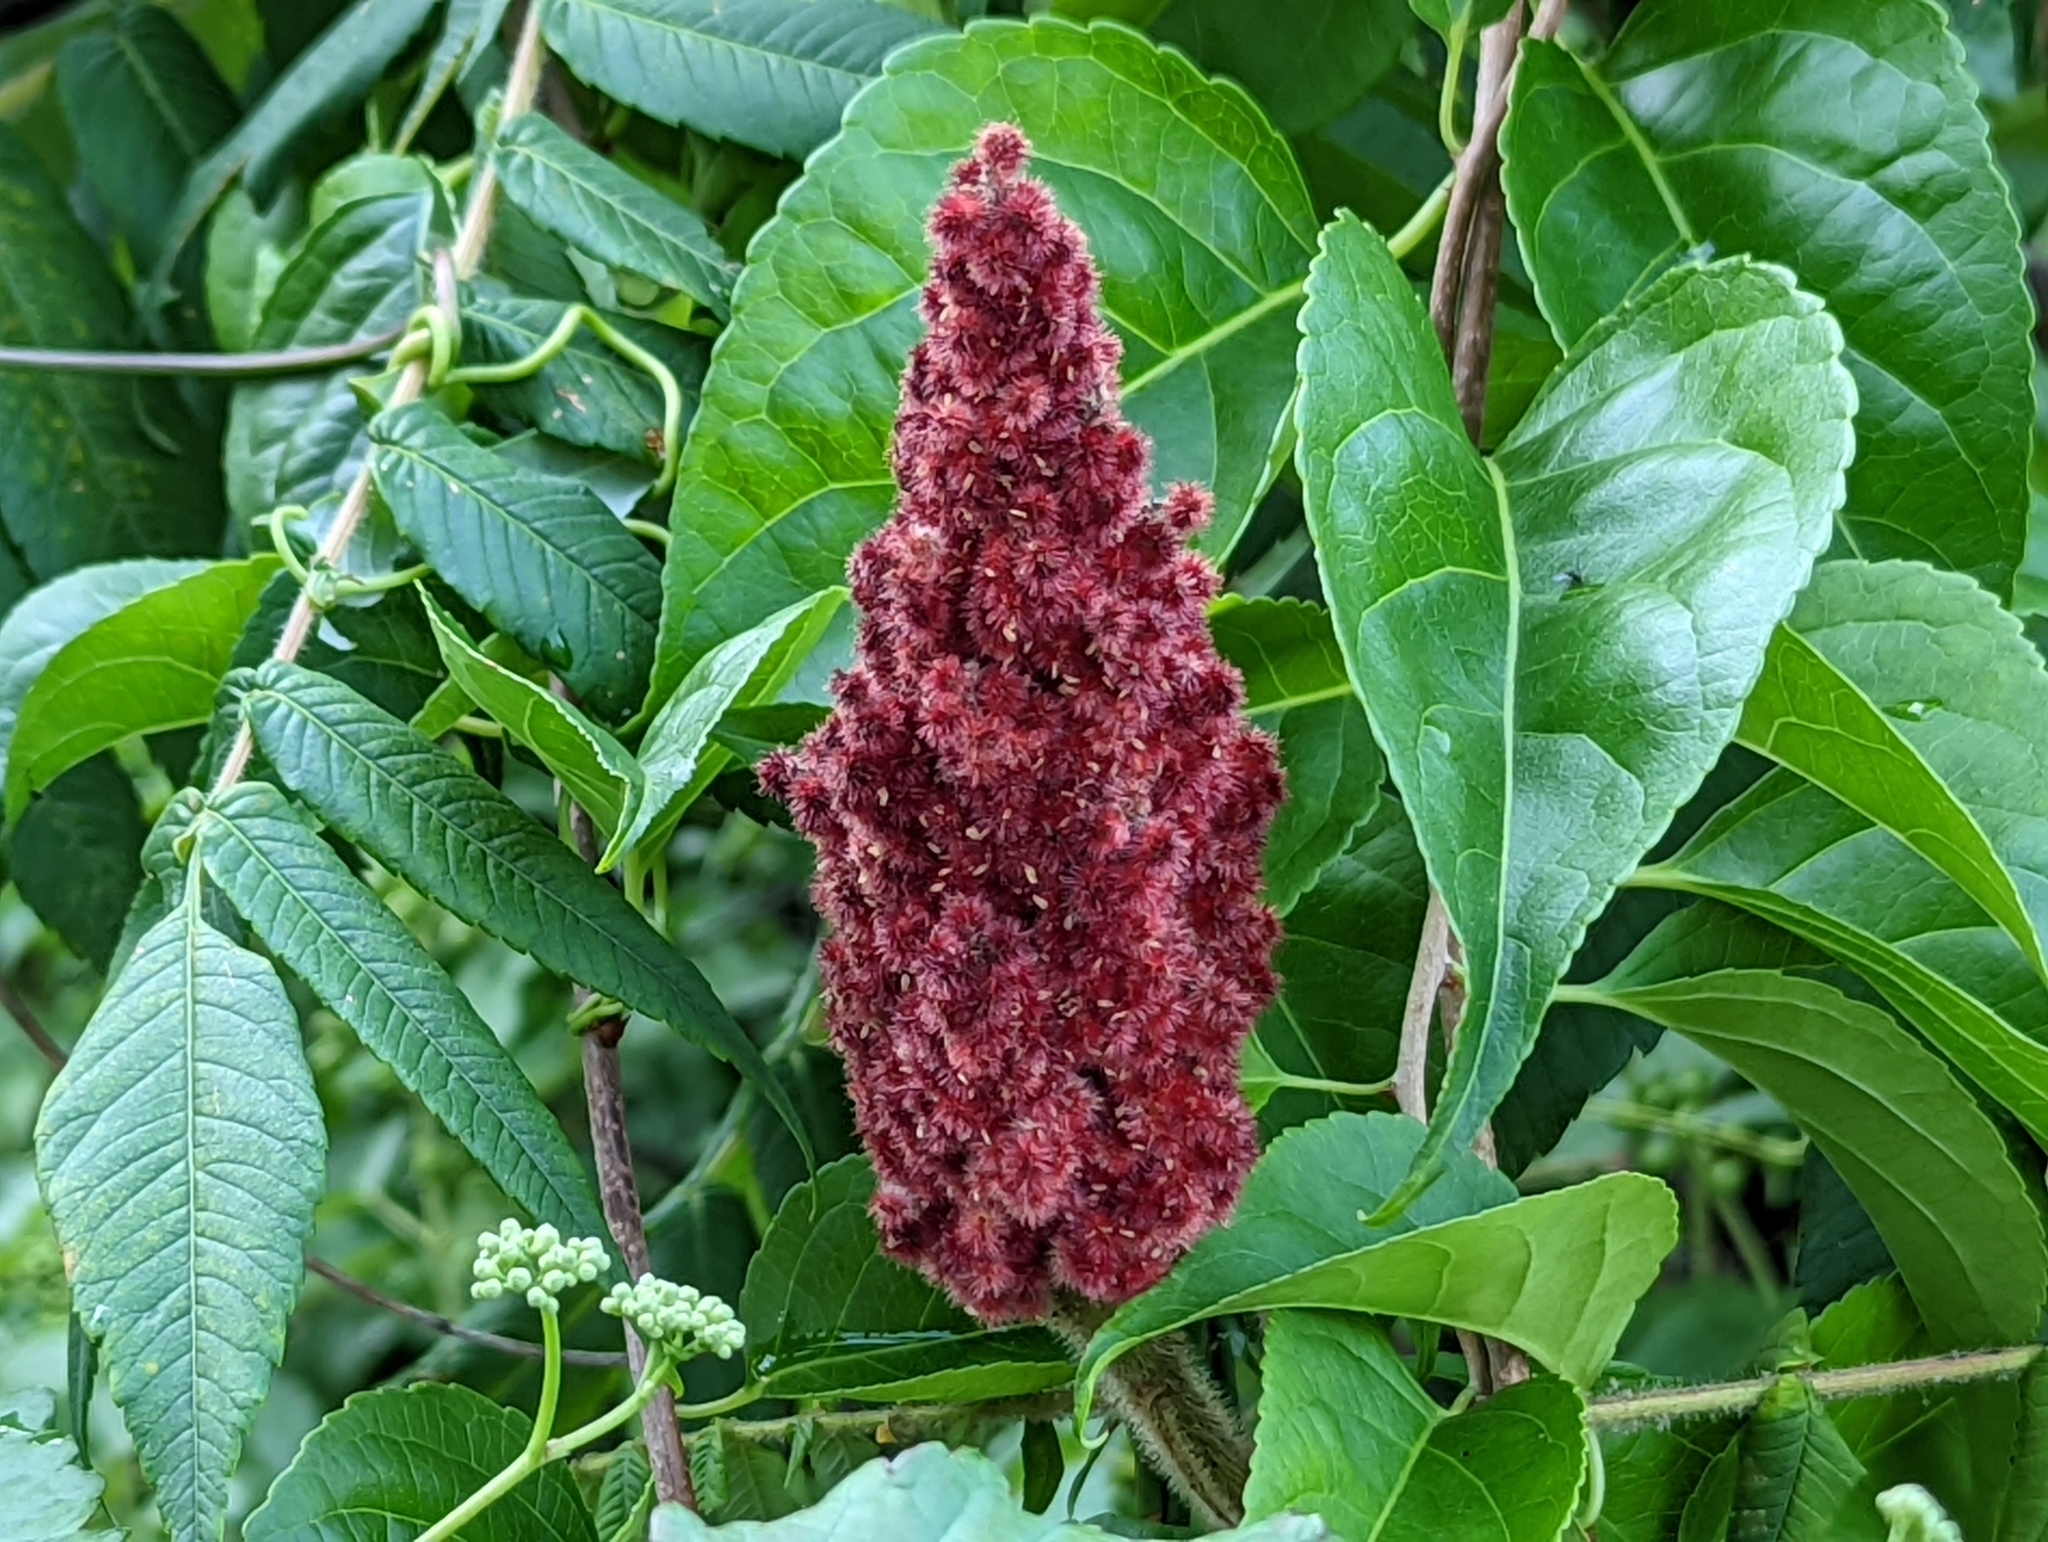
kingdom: Plantae
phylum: Tracheophyta
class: Magnoliopsida
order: Sapindales
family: Anacardiaceae
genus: Rhus
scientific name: Rhus typhina
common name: Staghorn sumac
